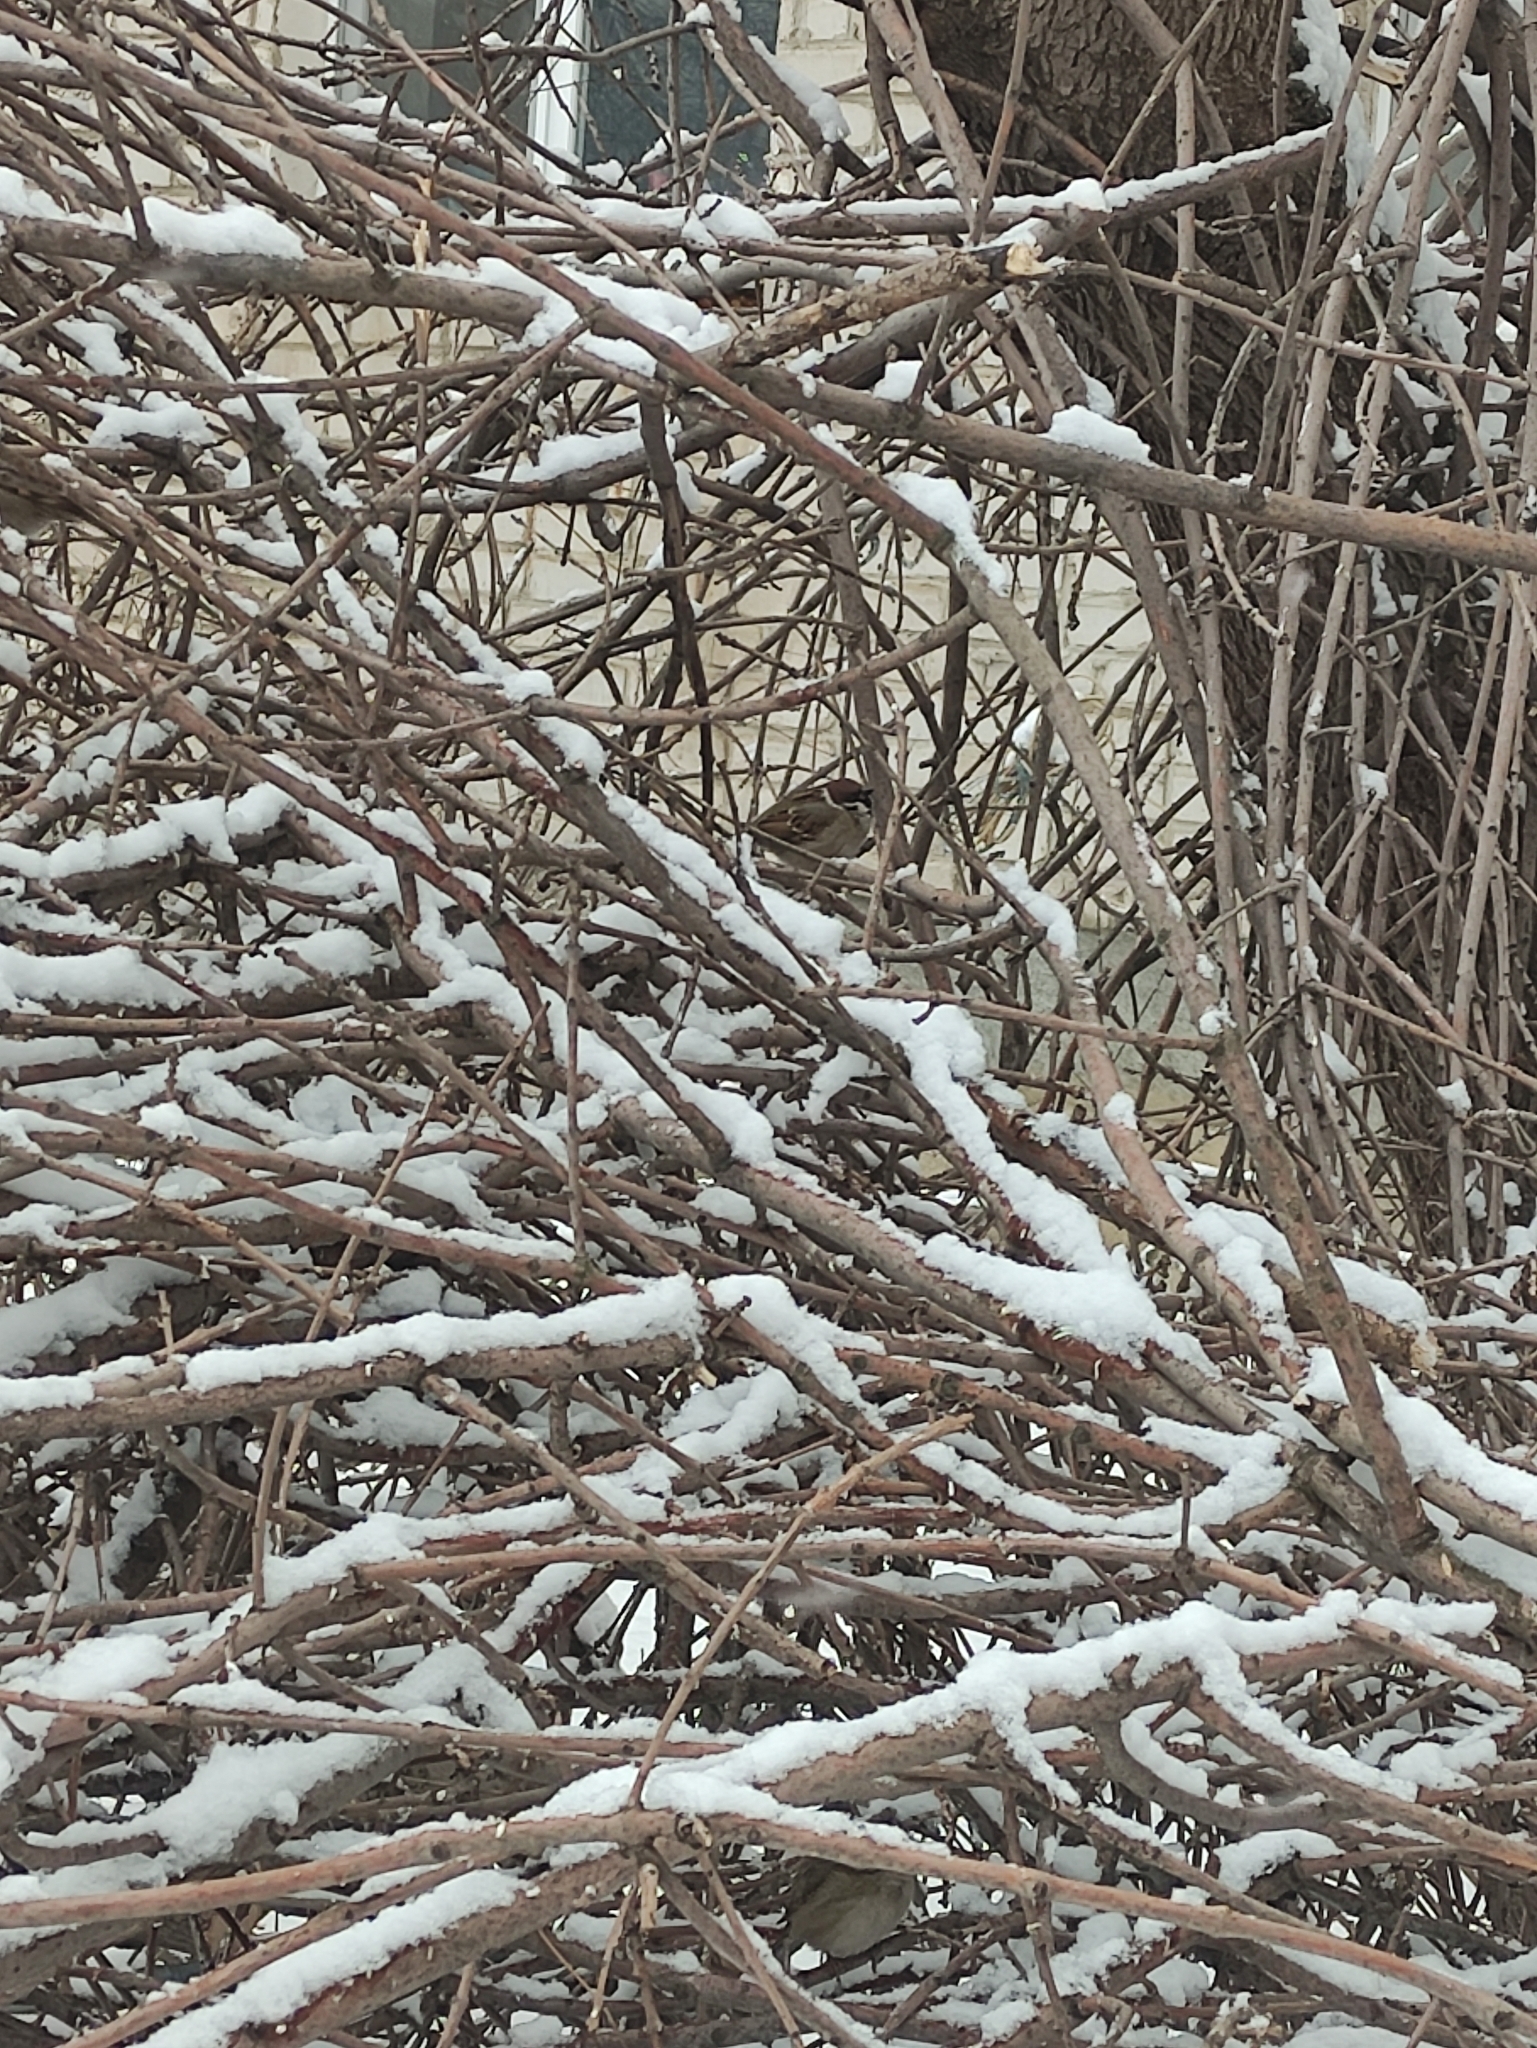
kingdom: Animalia
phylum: Chordata
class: Aves
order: Passeriformes
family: Passeridae
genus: Passer
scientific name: Passer montanus
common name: Eurasian tree sparrow
